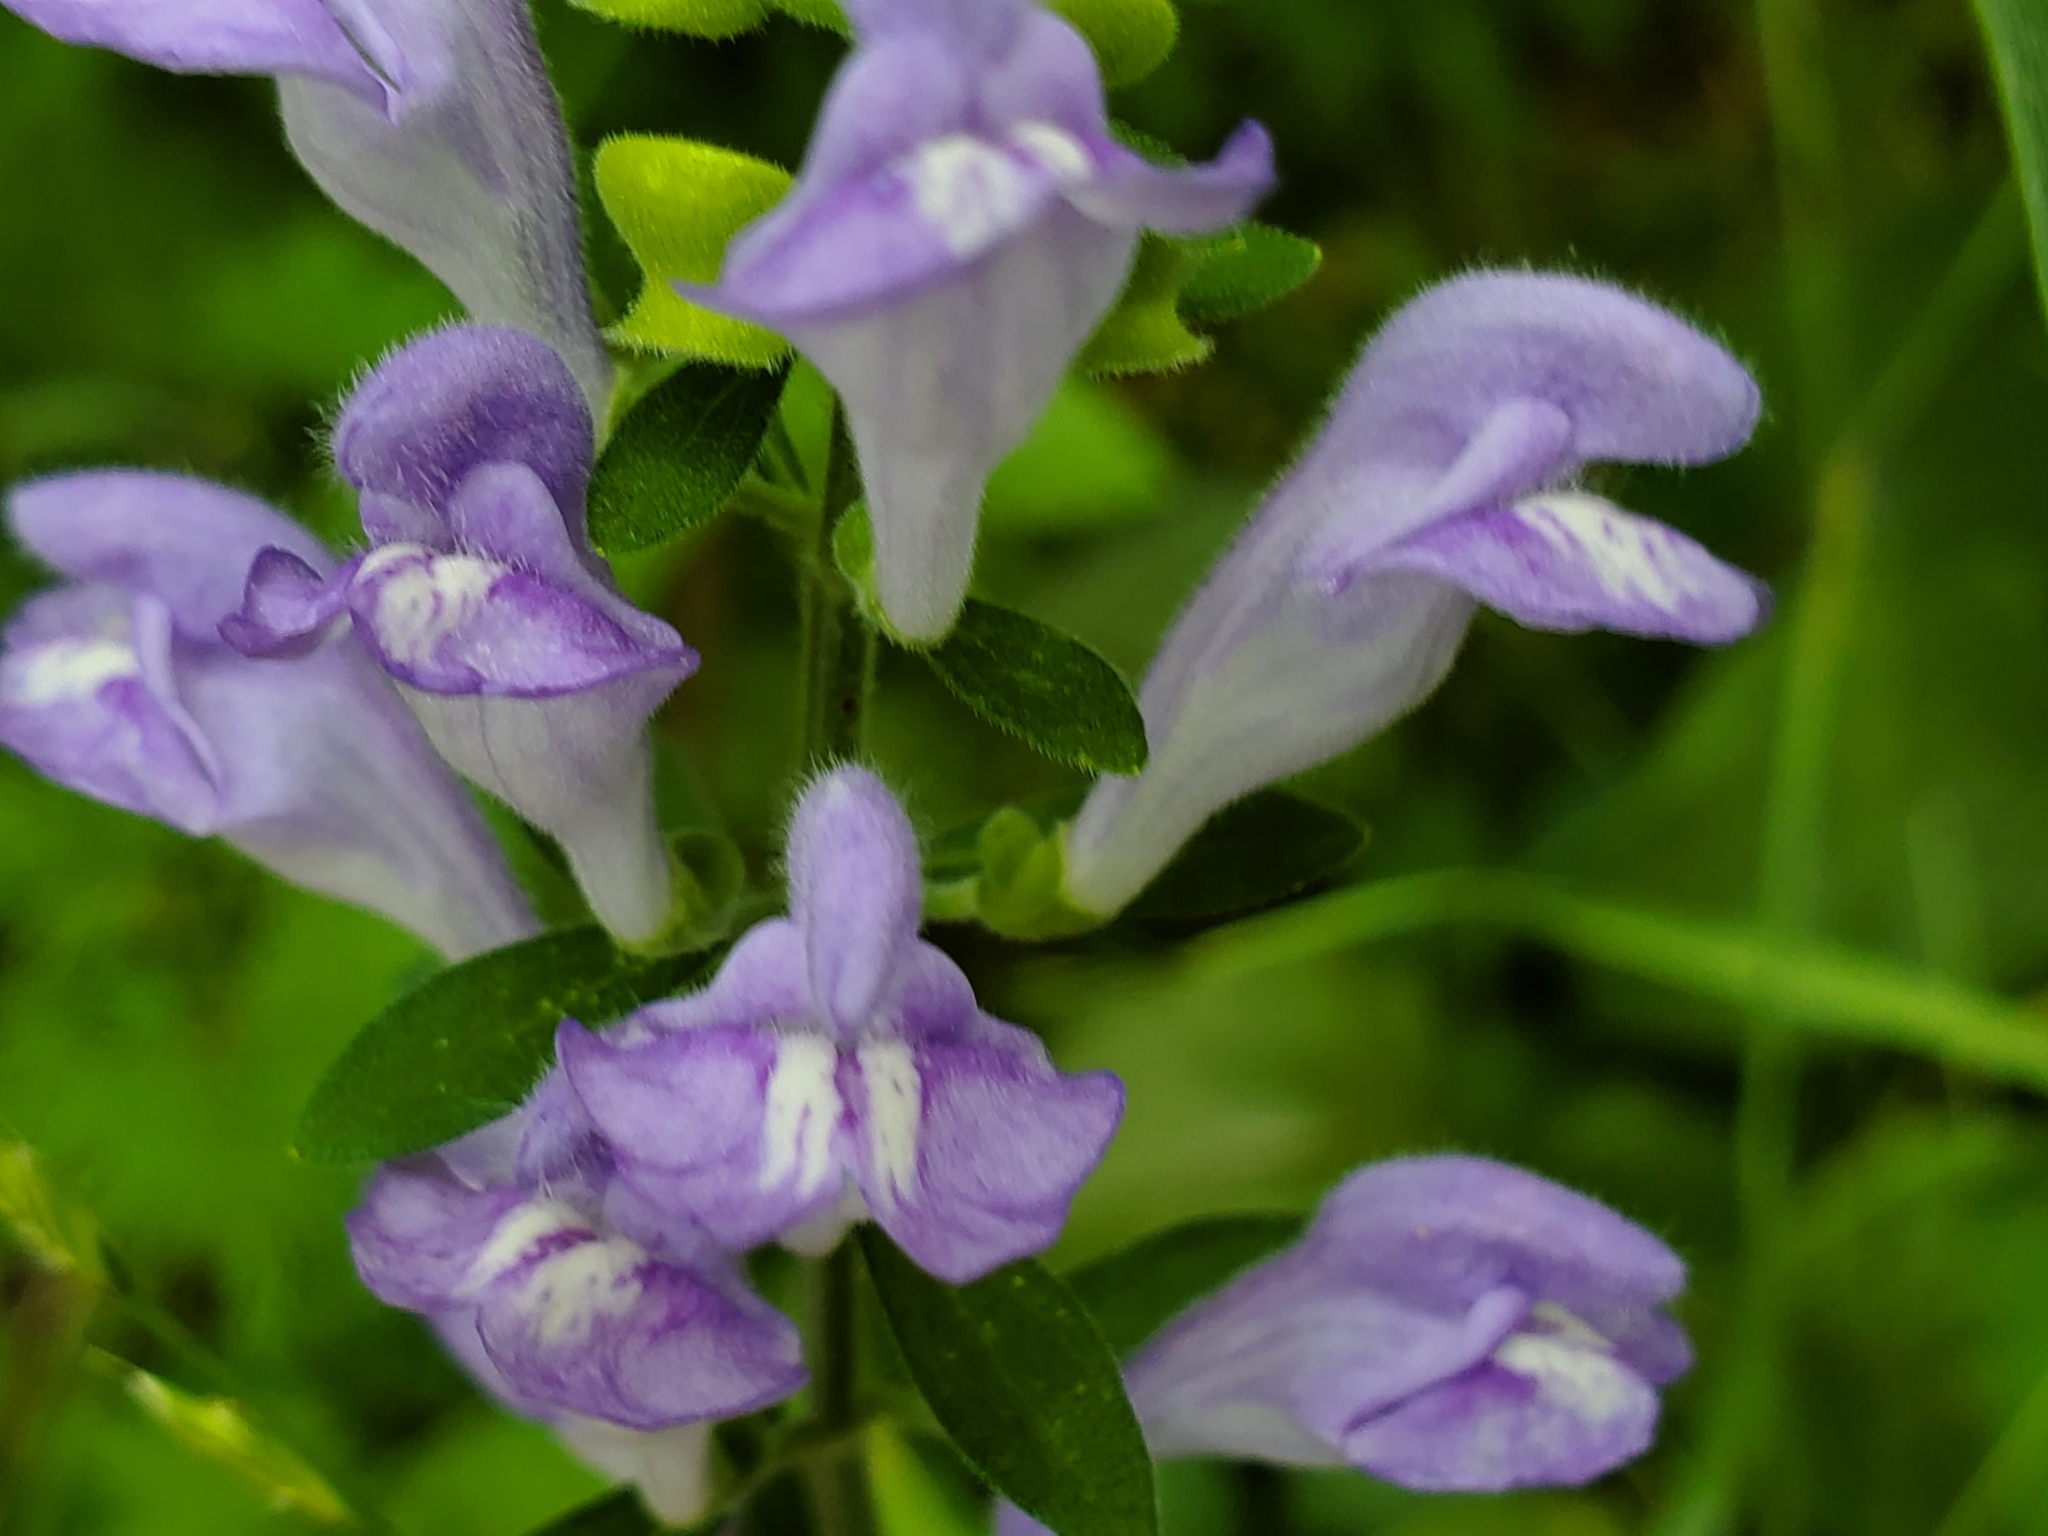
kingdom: Plantae
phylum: Tracheophyta
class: Magnoliopsida
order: Lamiales
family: Lamiaceae
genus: Scutellaria
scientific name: Scutellaria integrifolia
